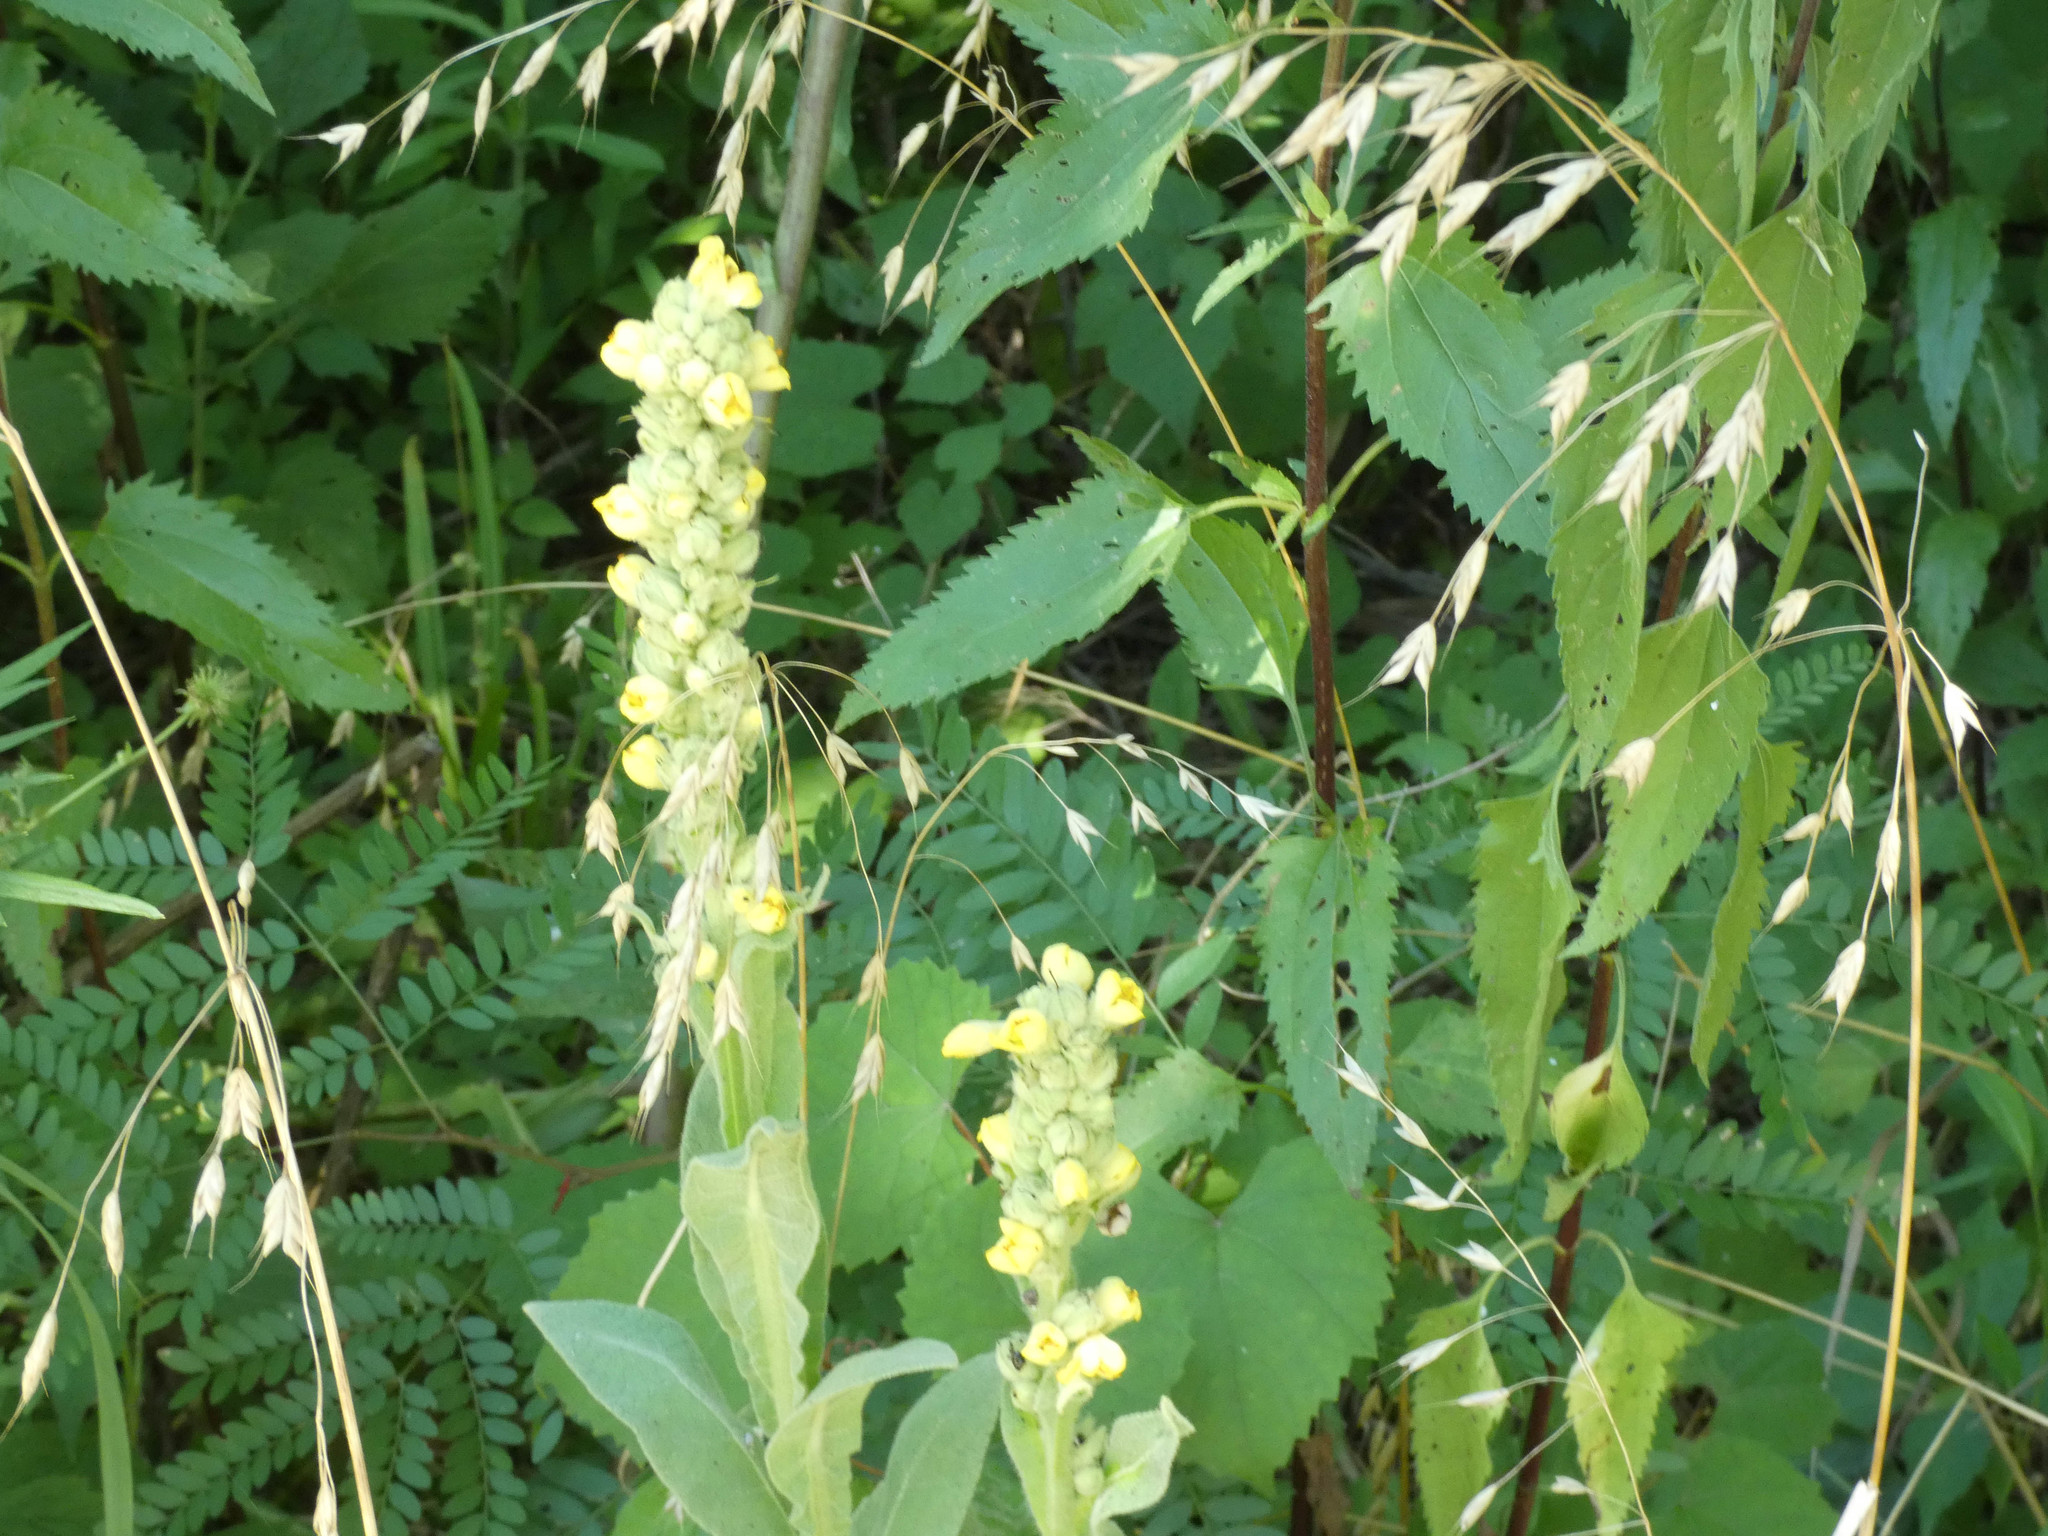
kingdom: Plantae
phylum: Tracheophyta
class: Magnoliopsida
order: Lamiales
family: Scrophulariaceae
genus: Verbascum
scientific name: Verbascum thapsus
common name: Common mullein
